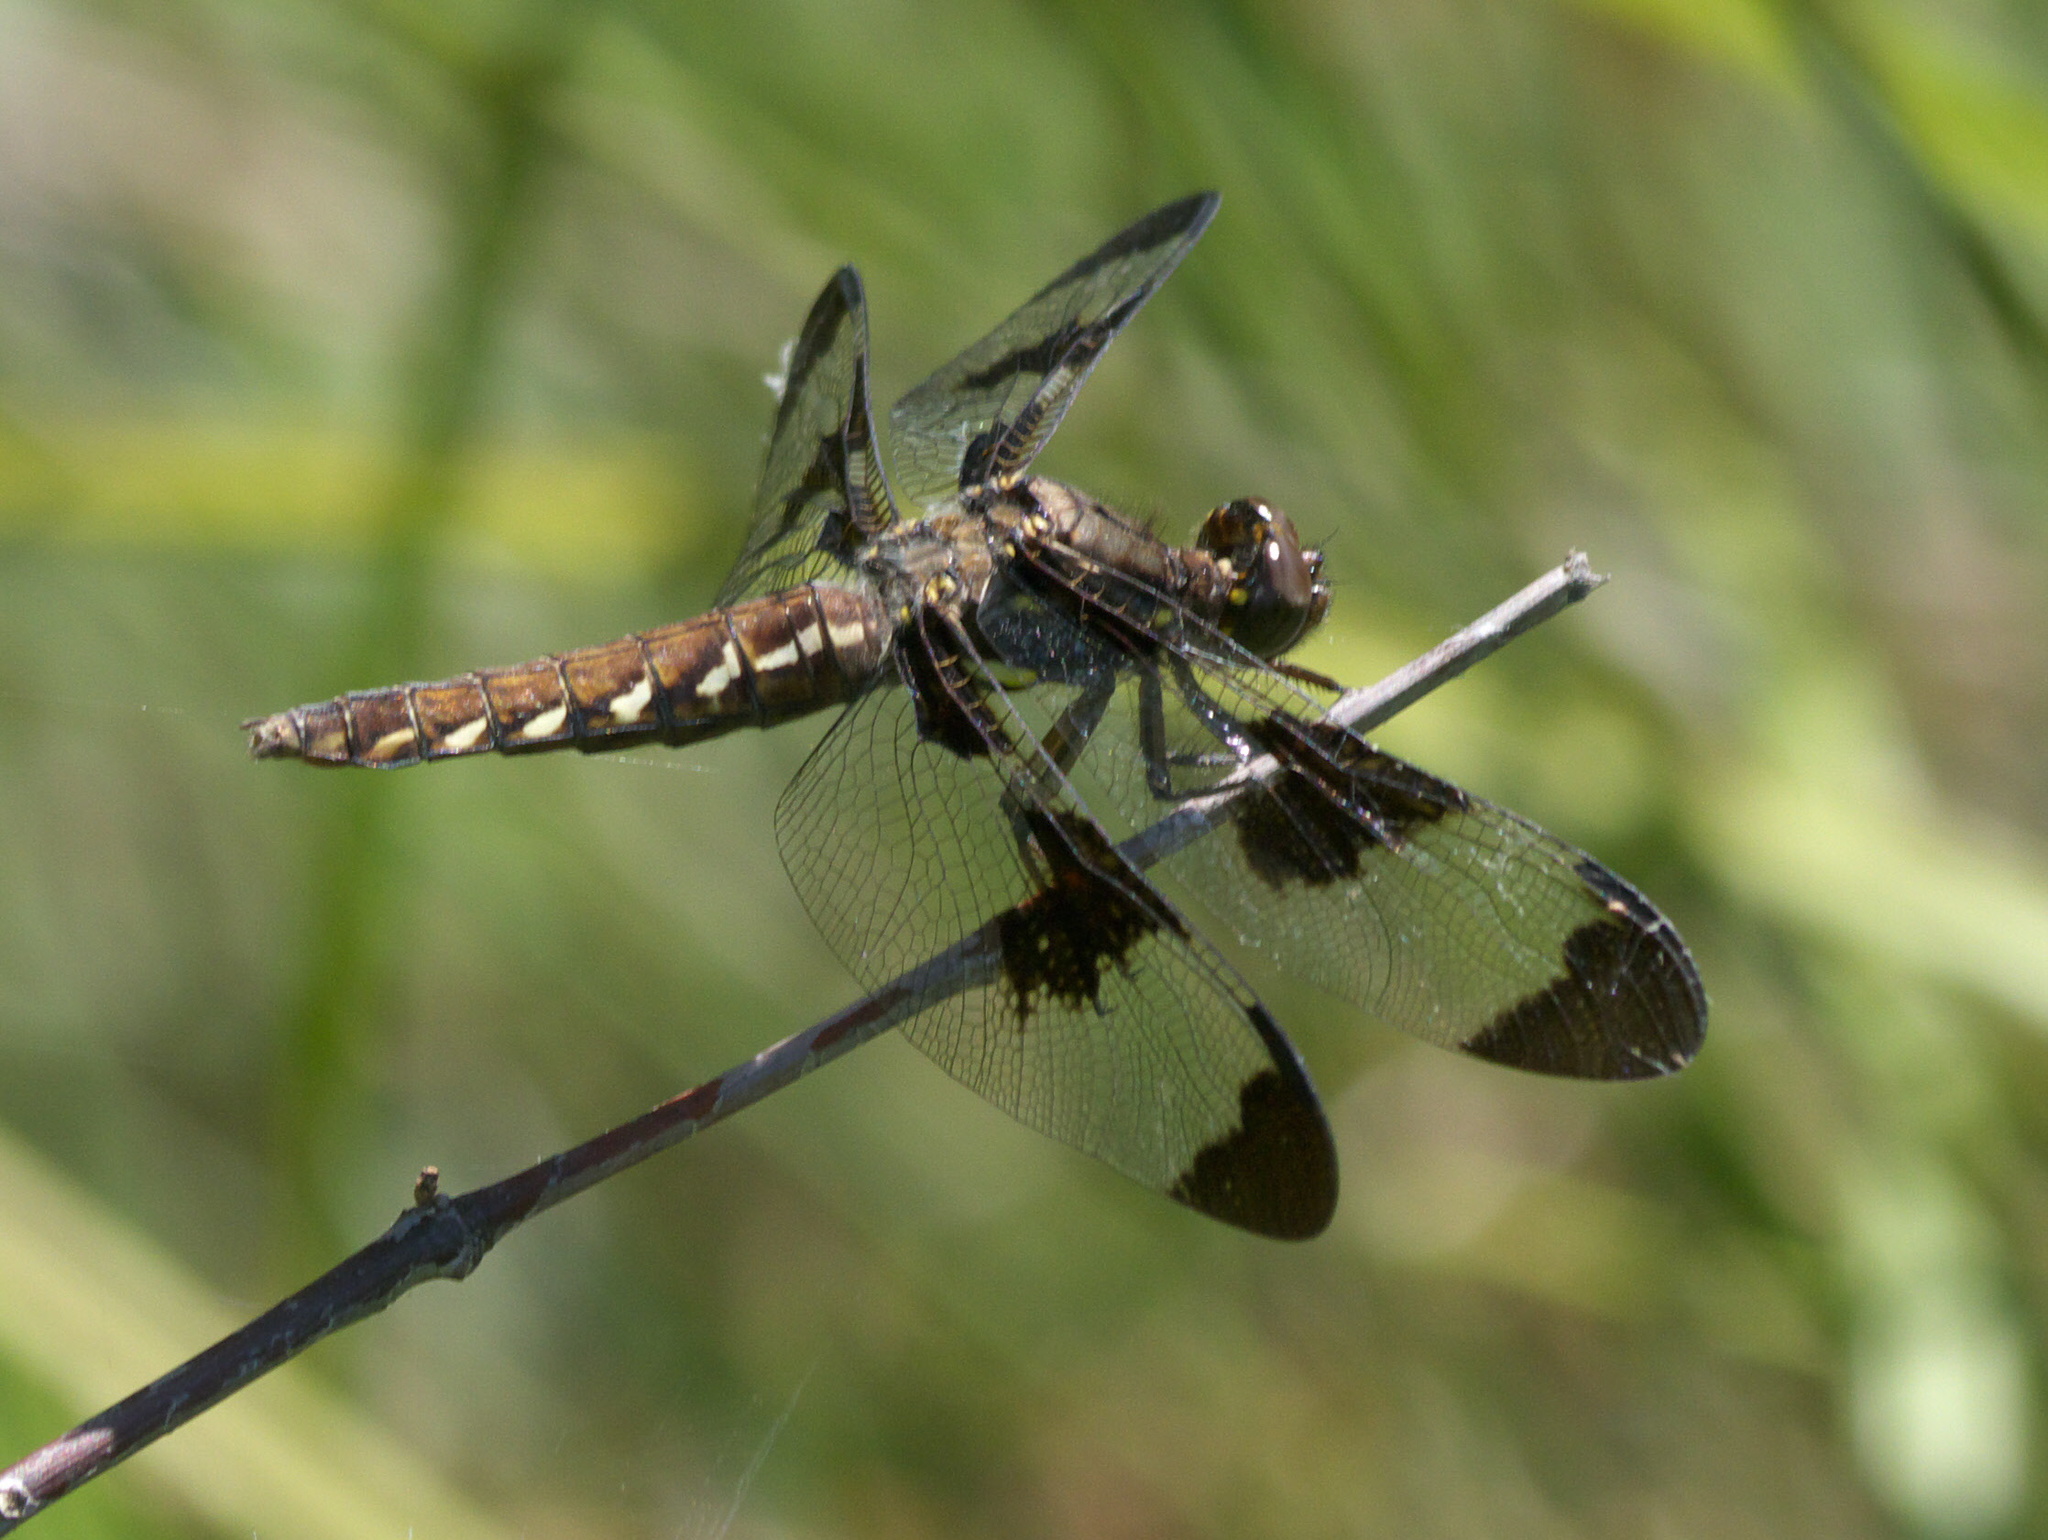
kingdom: Animalia
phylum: Arthropoda
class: Insecta
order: Odonata
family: Libellulidae
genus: Plathemis
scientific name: Plathemis lydia
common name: Common whitetail
